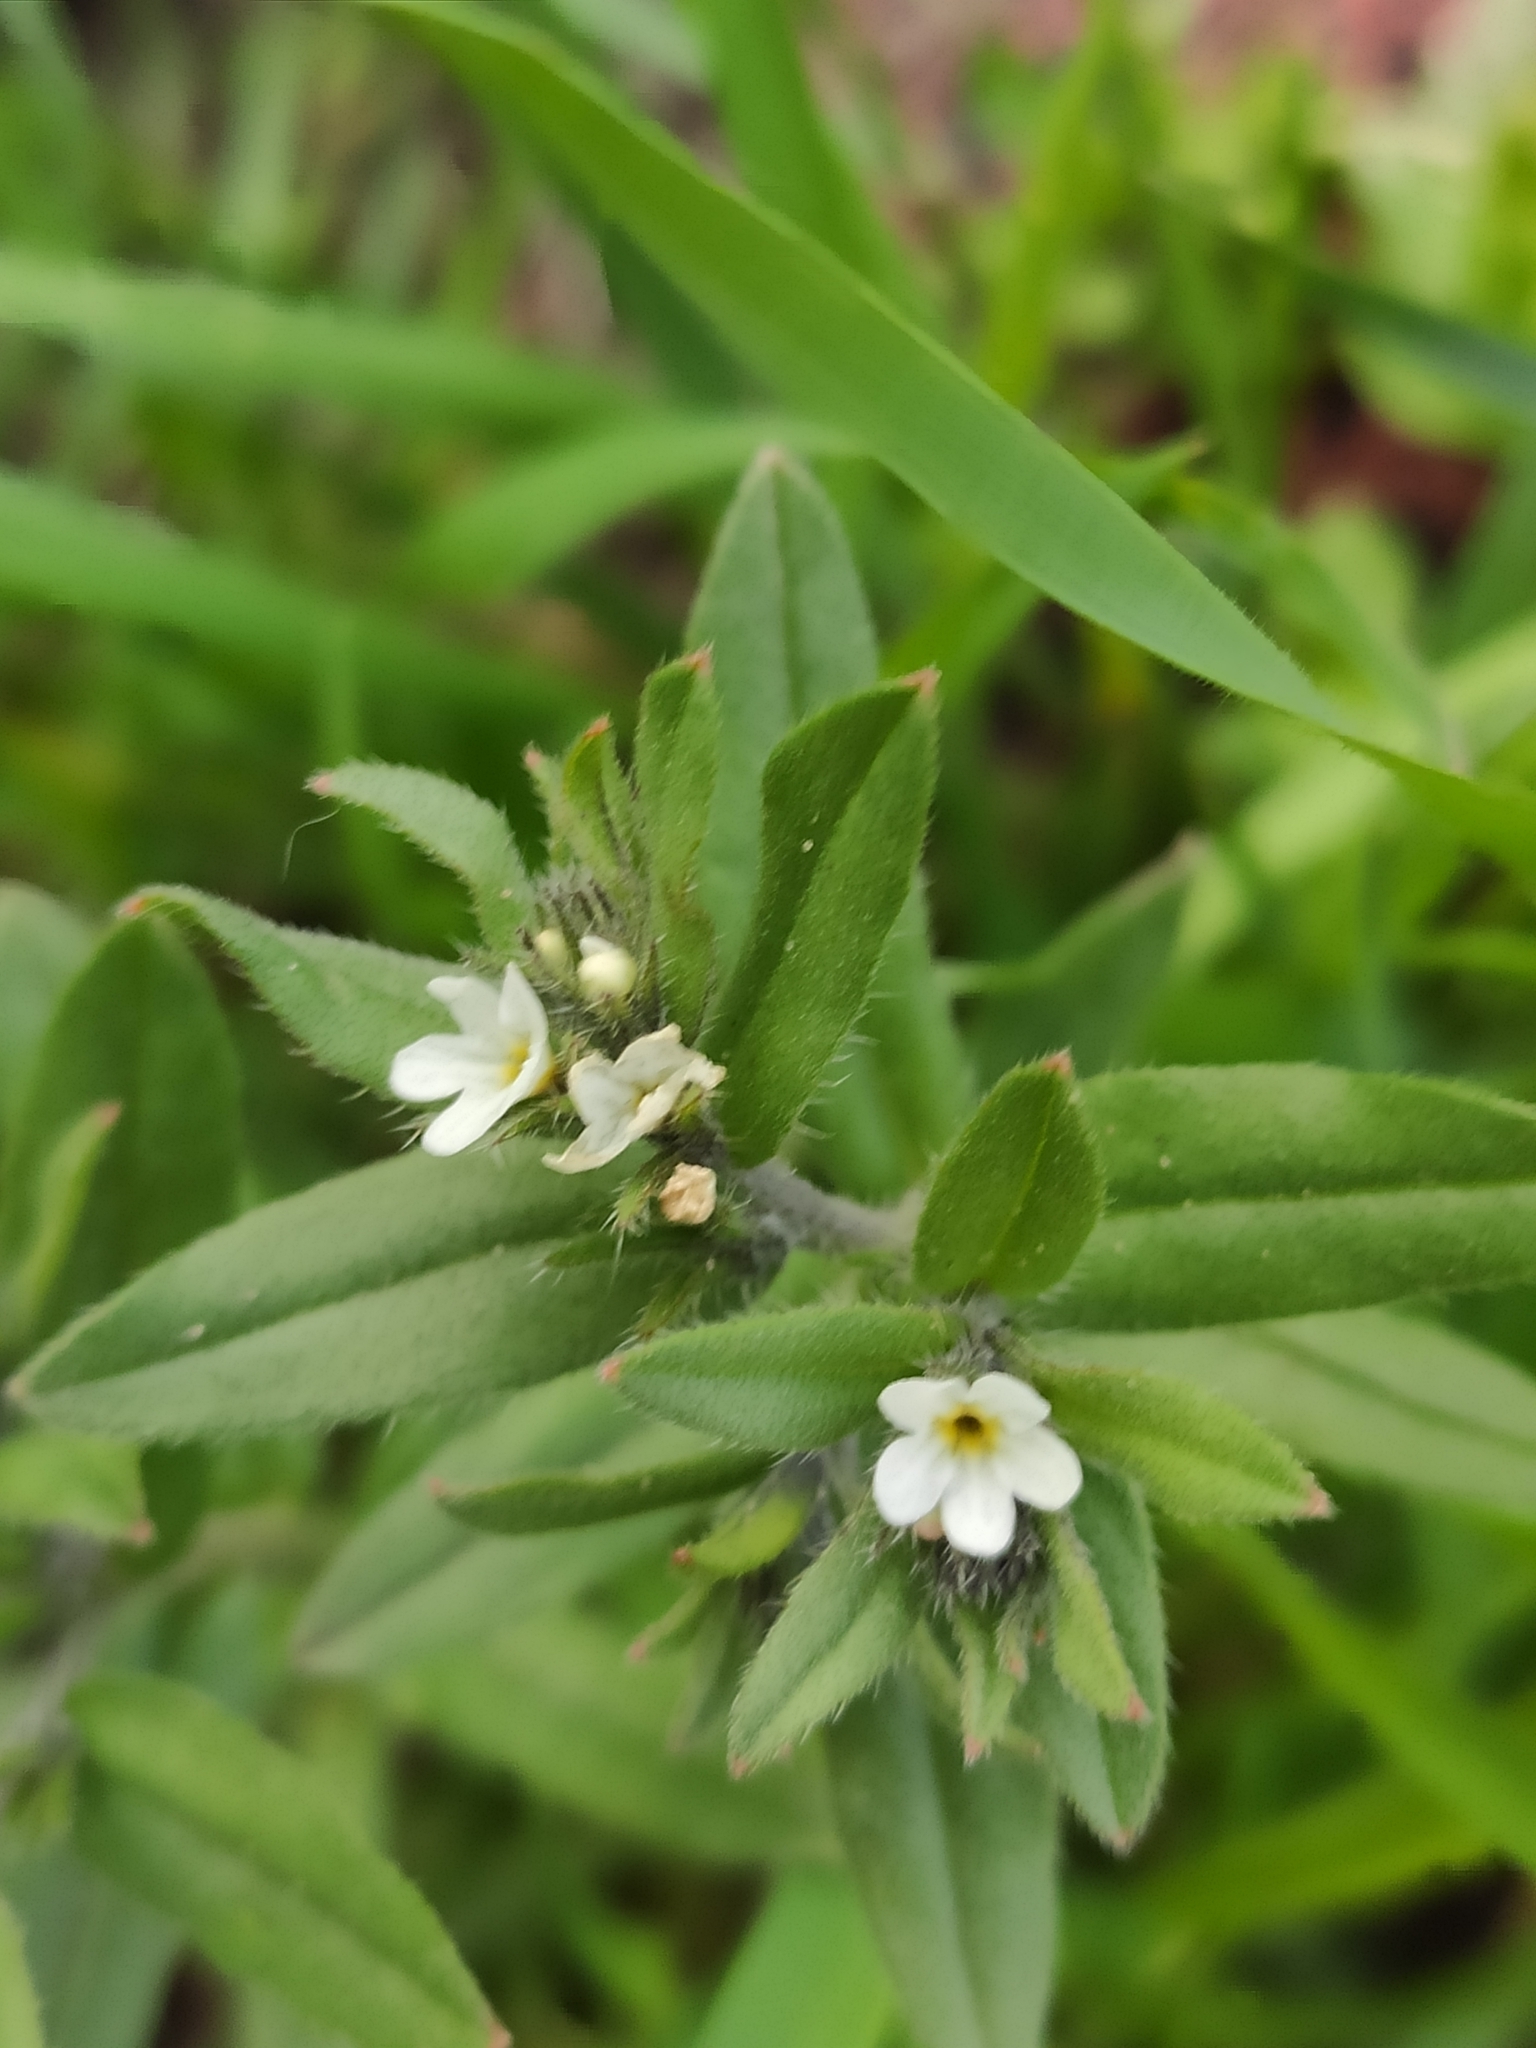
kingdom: Plantae
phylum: Tracheophyta
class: Magnoliopsida
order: Boraginales
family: Boraginaceae
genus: Buglossoides
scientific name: Buglossoides arvensis
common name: Corn gromwell
